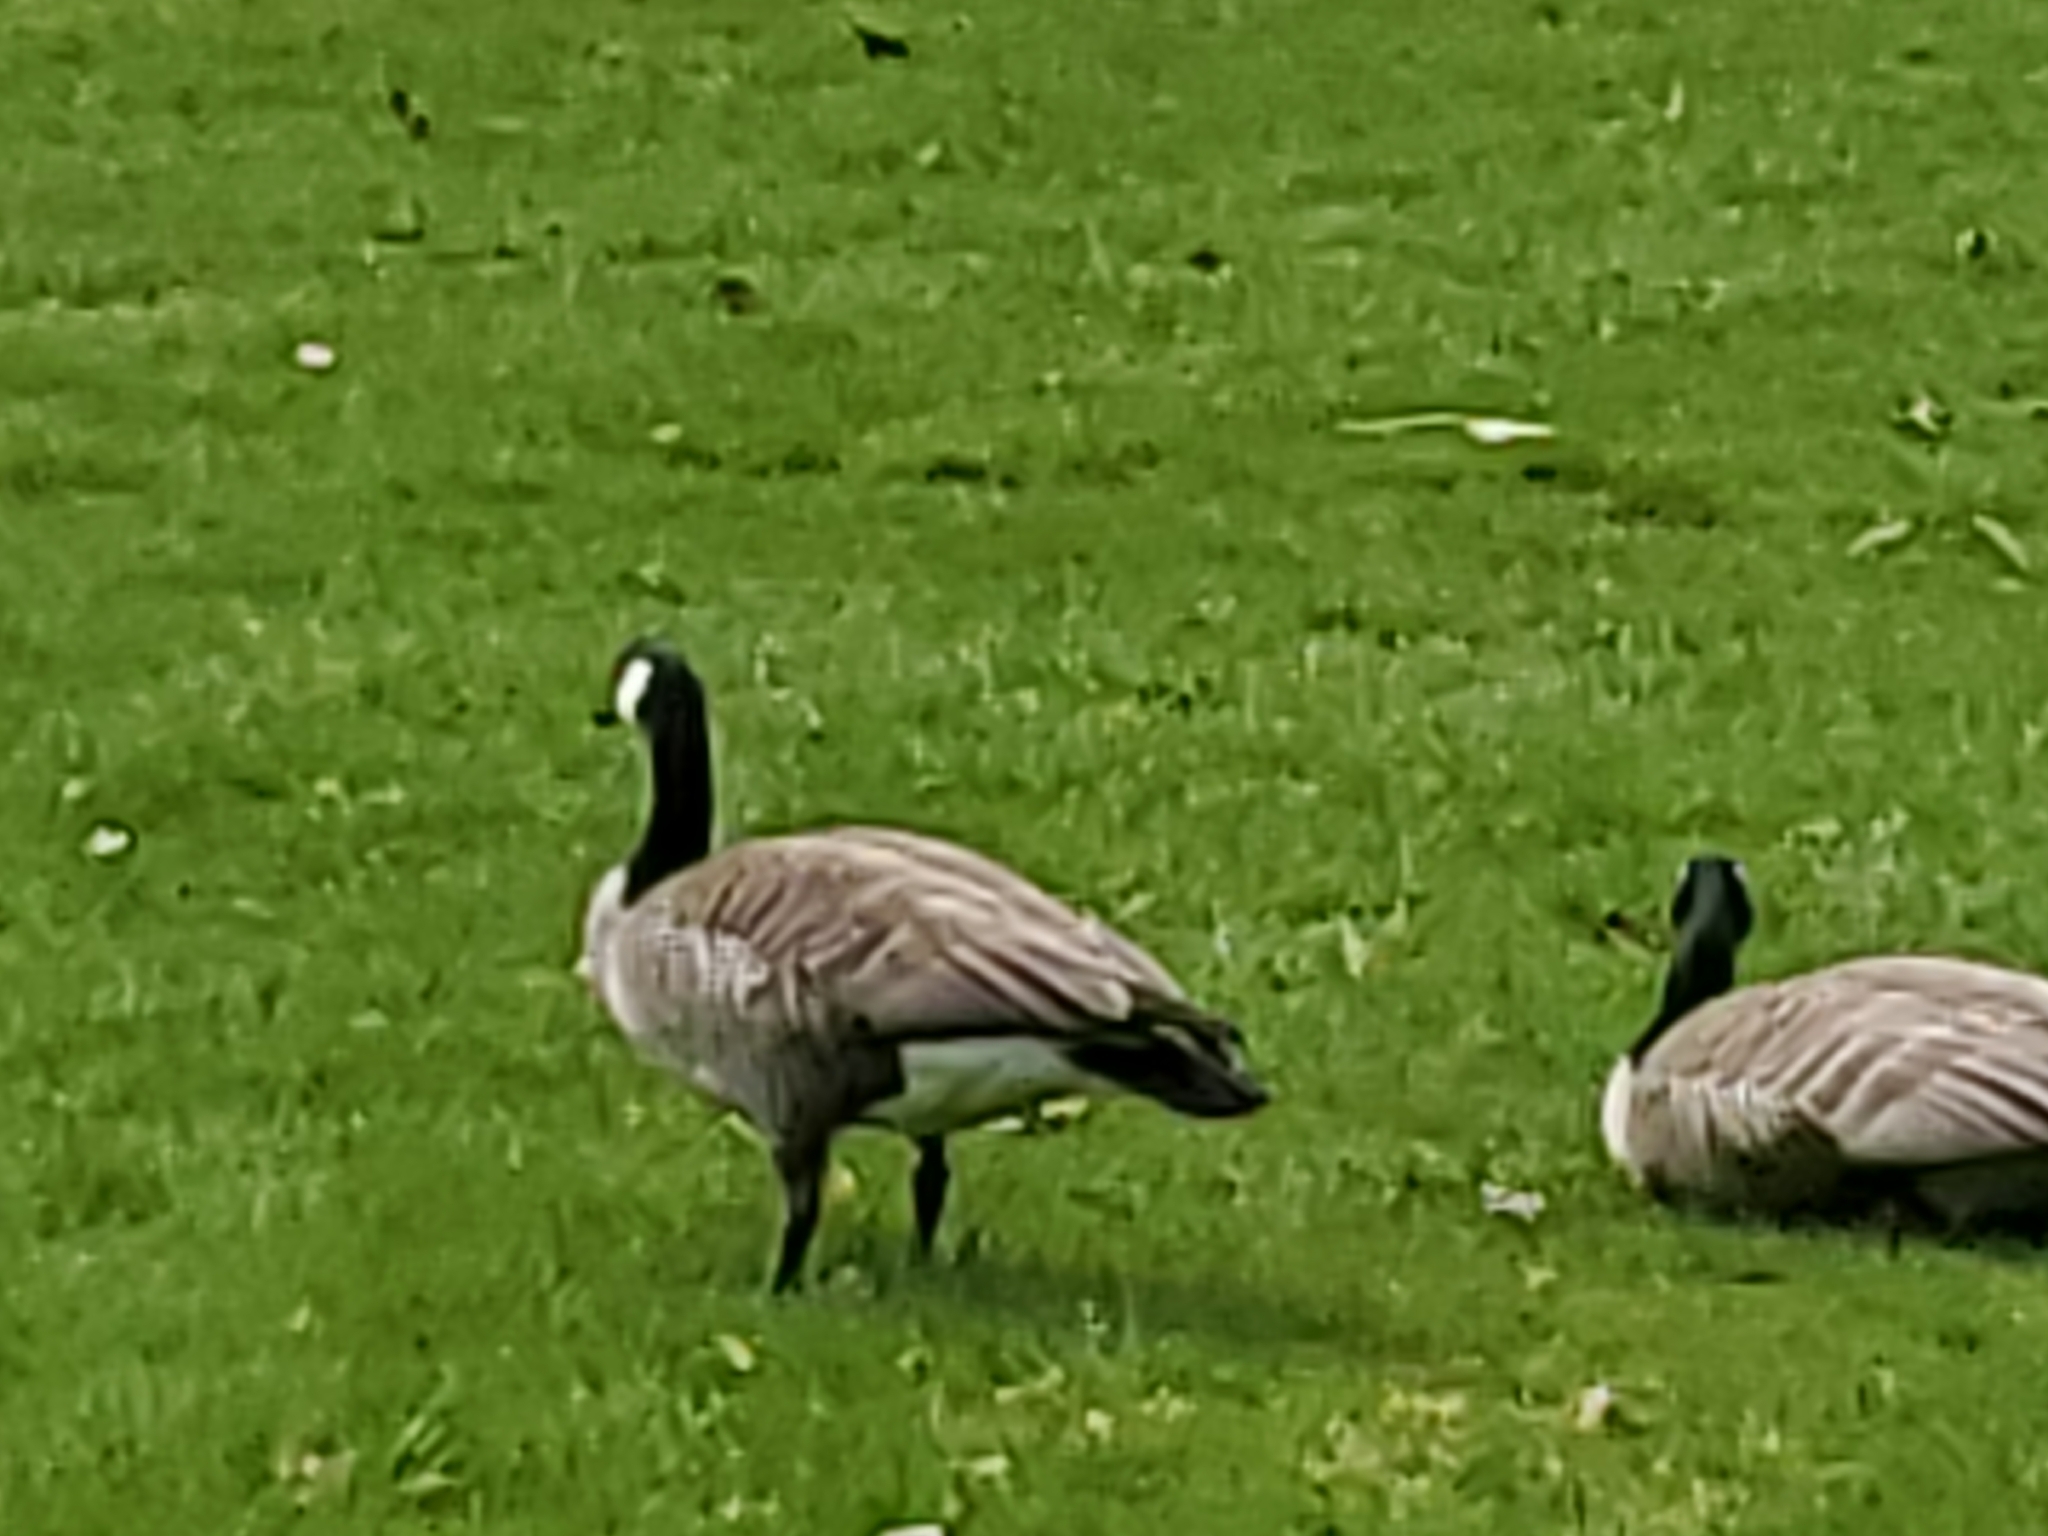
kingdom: Animalia
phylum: Chordata
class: Aves
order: Anseriformes
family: Anatidae
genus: Branta
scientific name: Branta canadensis
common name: Canada goose
